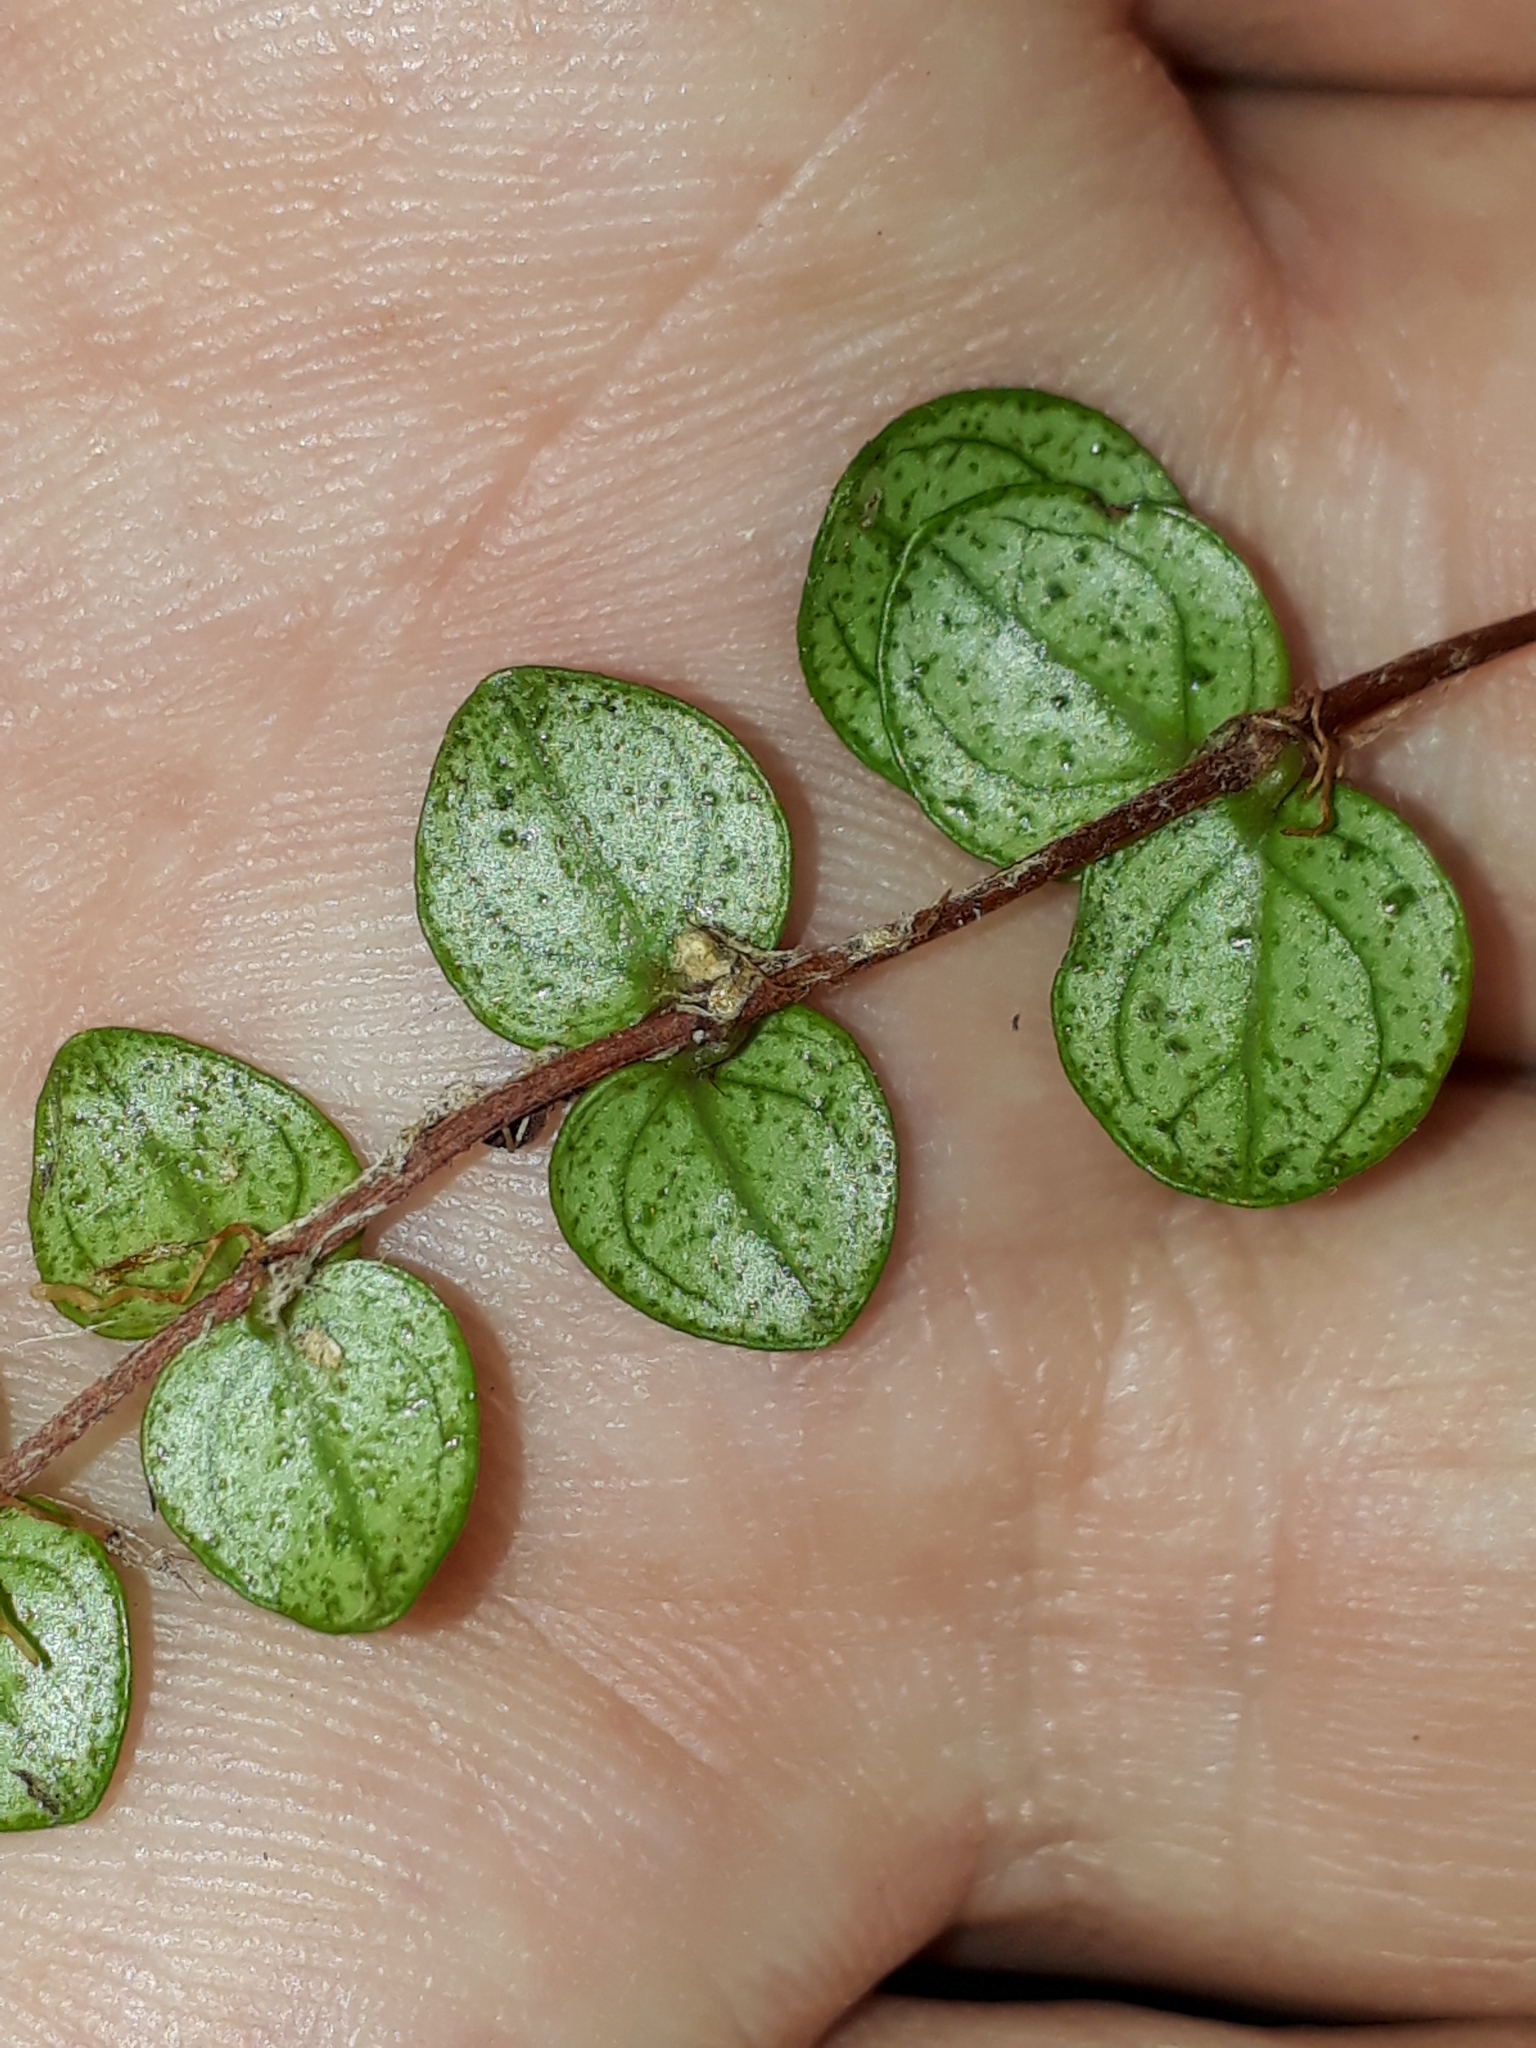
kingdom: Plantae
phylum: Tracheophyta
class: Magnoliopsida
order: Myrtales
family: Myrtaceae
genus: Metrosideros
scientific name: Metrosideros perforata
